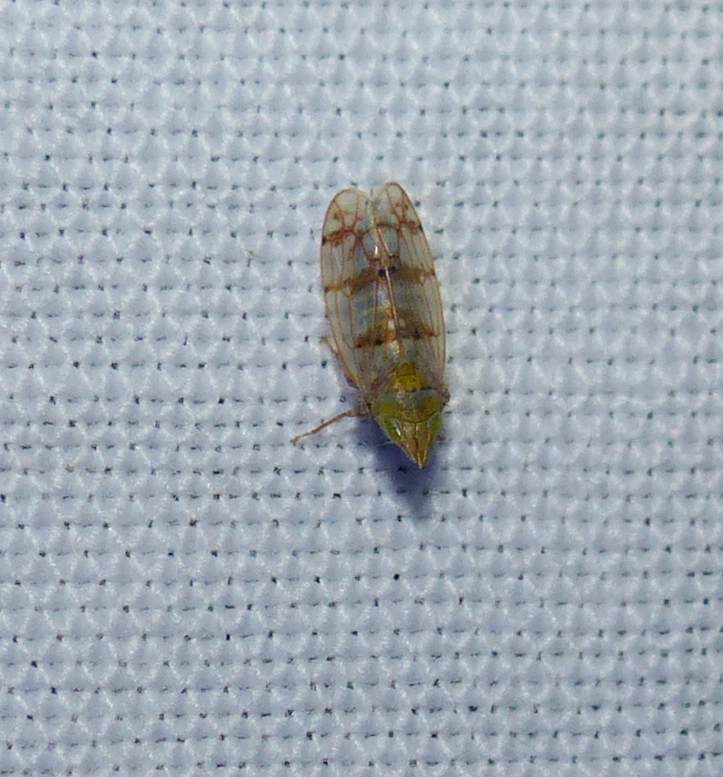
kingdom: Animalia
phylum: Arthropoda
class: Insecta
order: Hemiptera
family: Cicadellidae
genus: Japananus
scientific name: Japananus hyalinus
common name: The japanese maple leafhopper
